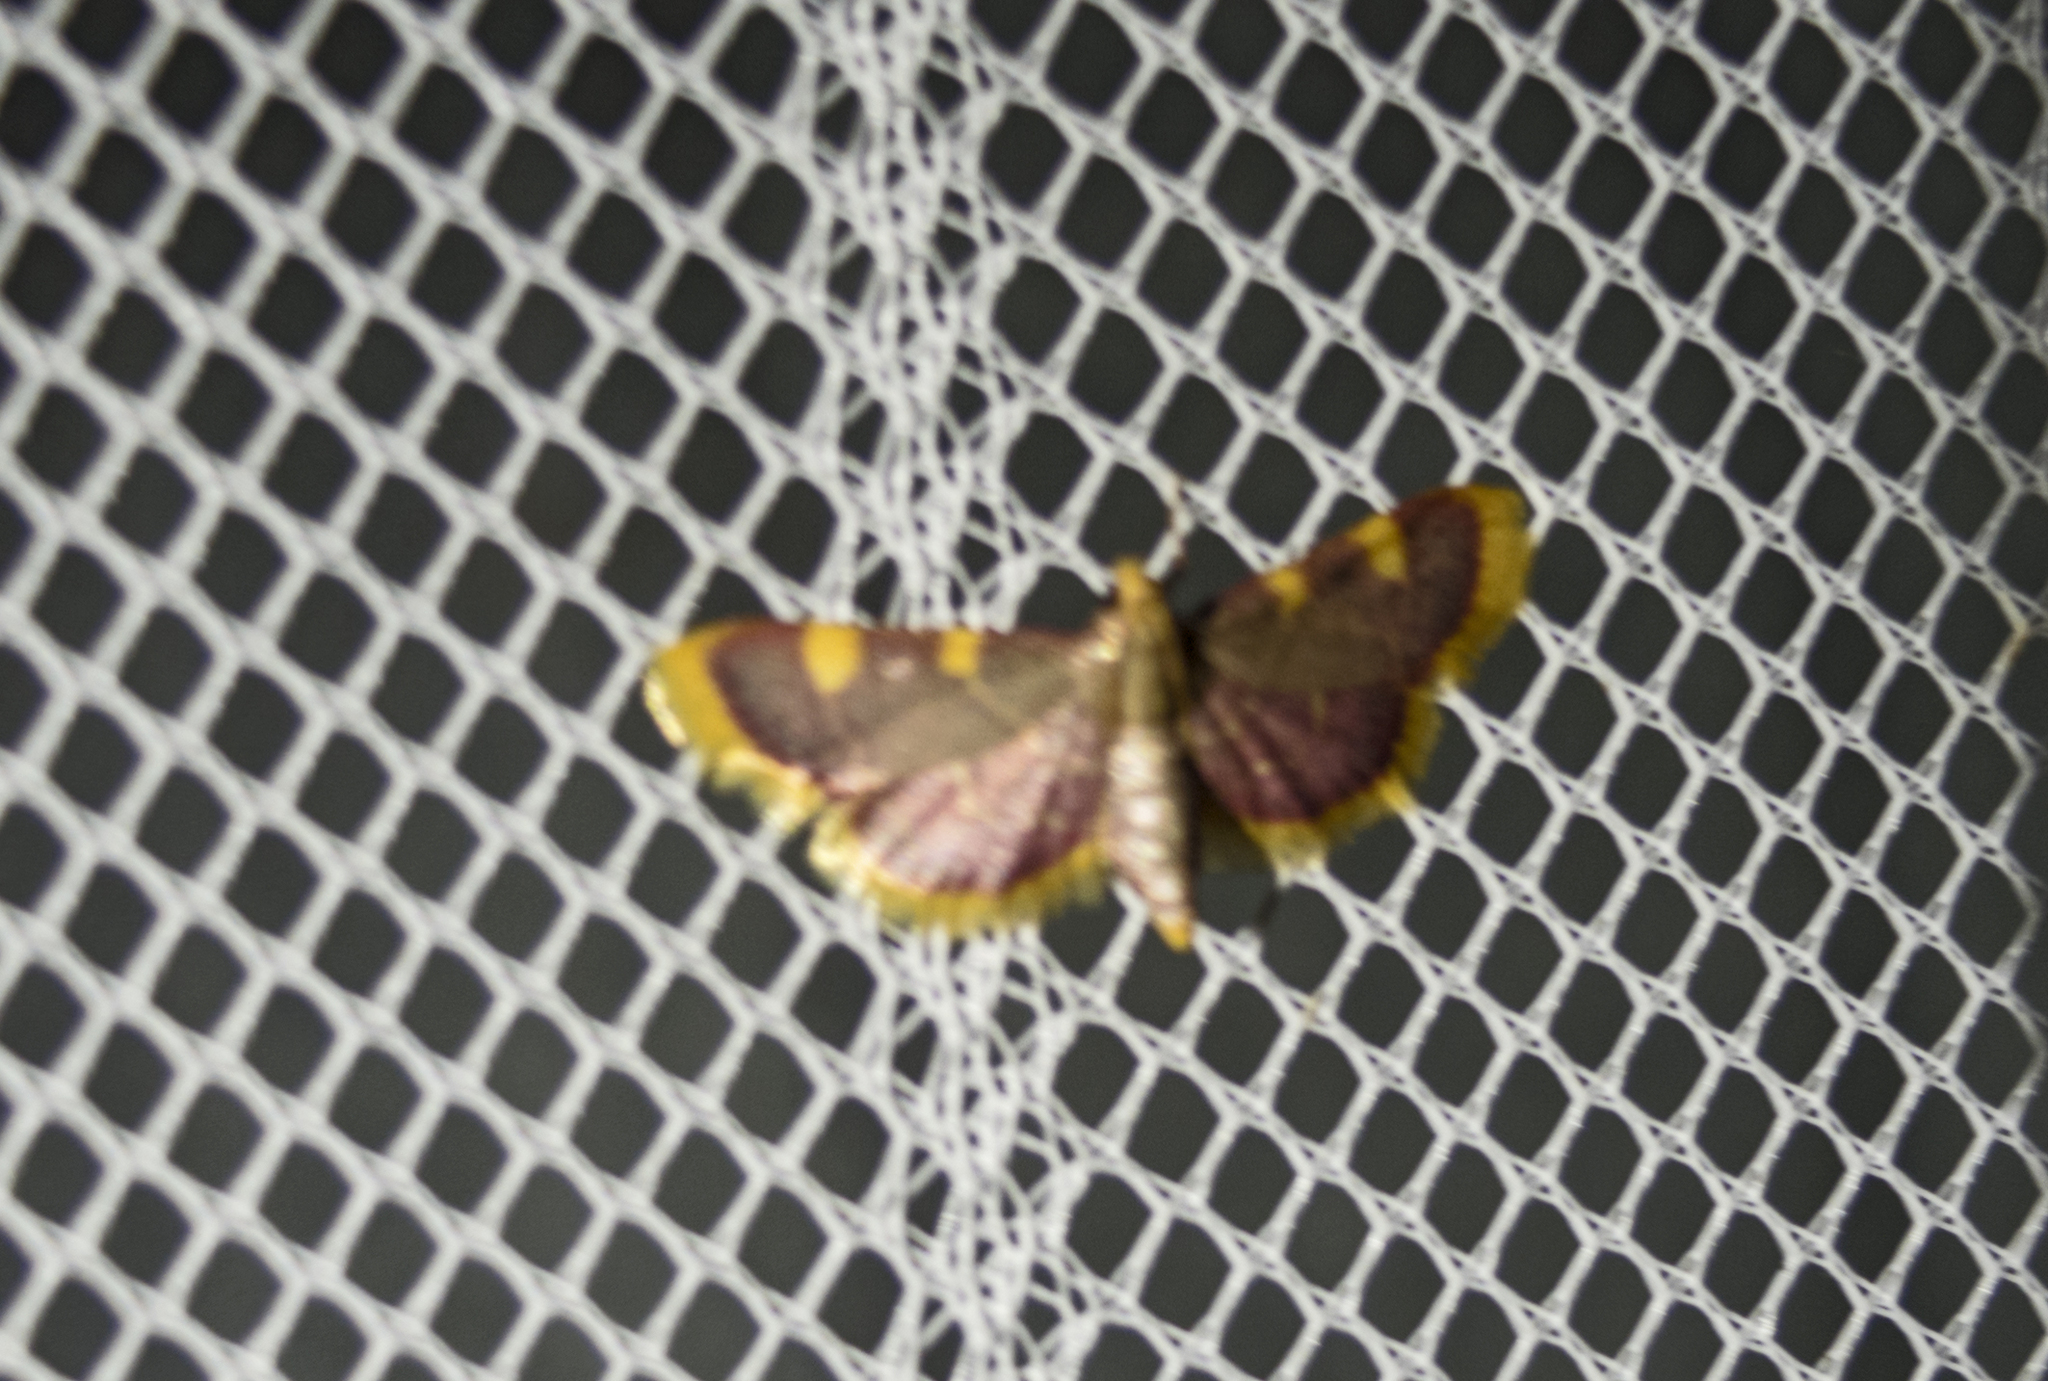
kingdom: Animalia
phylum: Arthropoda
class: Insecta
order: Lepidoptera
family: Pyralidae
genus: Hypsopygia
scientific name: Hypsopygia costalis
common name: Gold triangle
